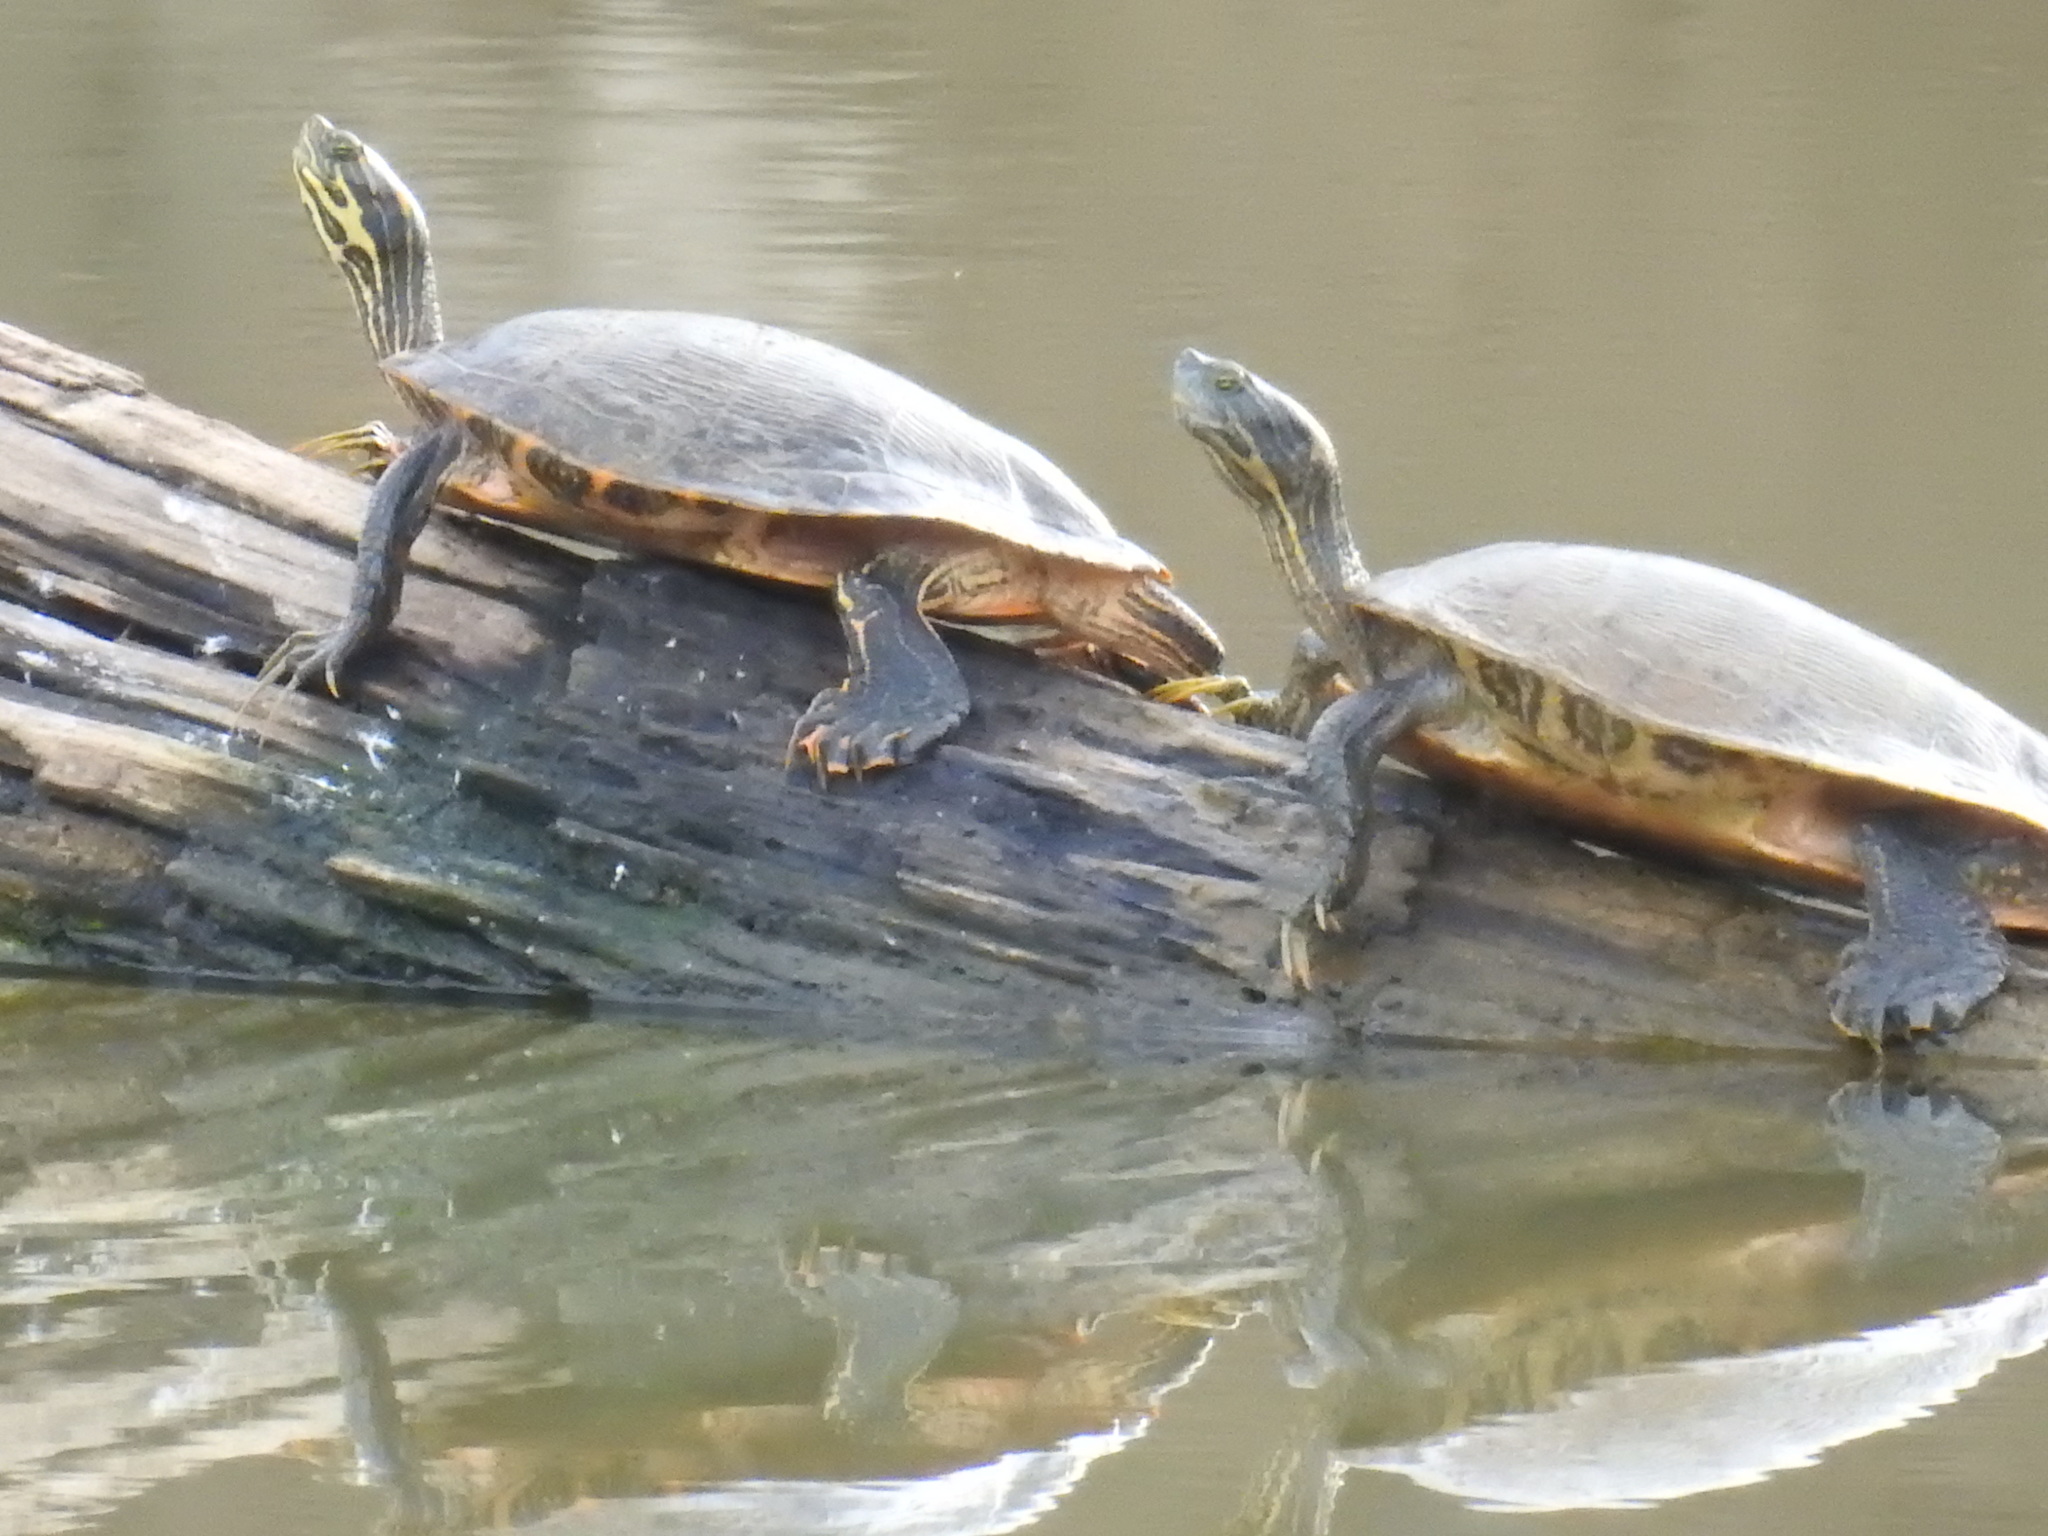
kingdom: Animalia
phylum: Chordata
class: Testudines
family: Emydidae
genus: Pseudemys
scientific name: Pseudemys concinna
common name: Eastern river cooter
